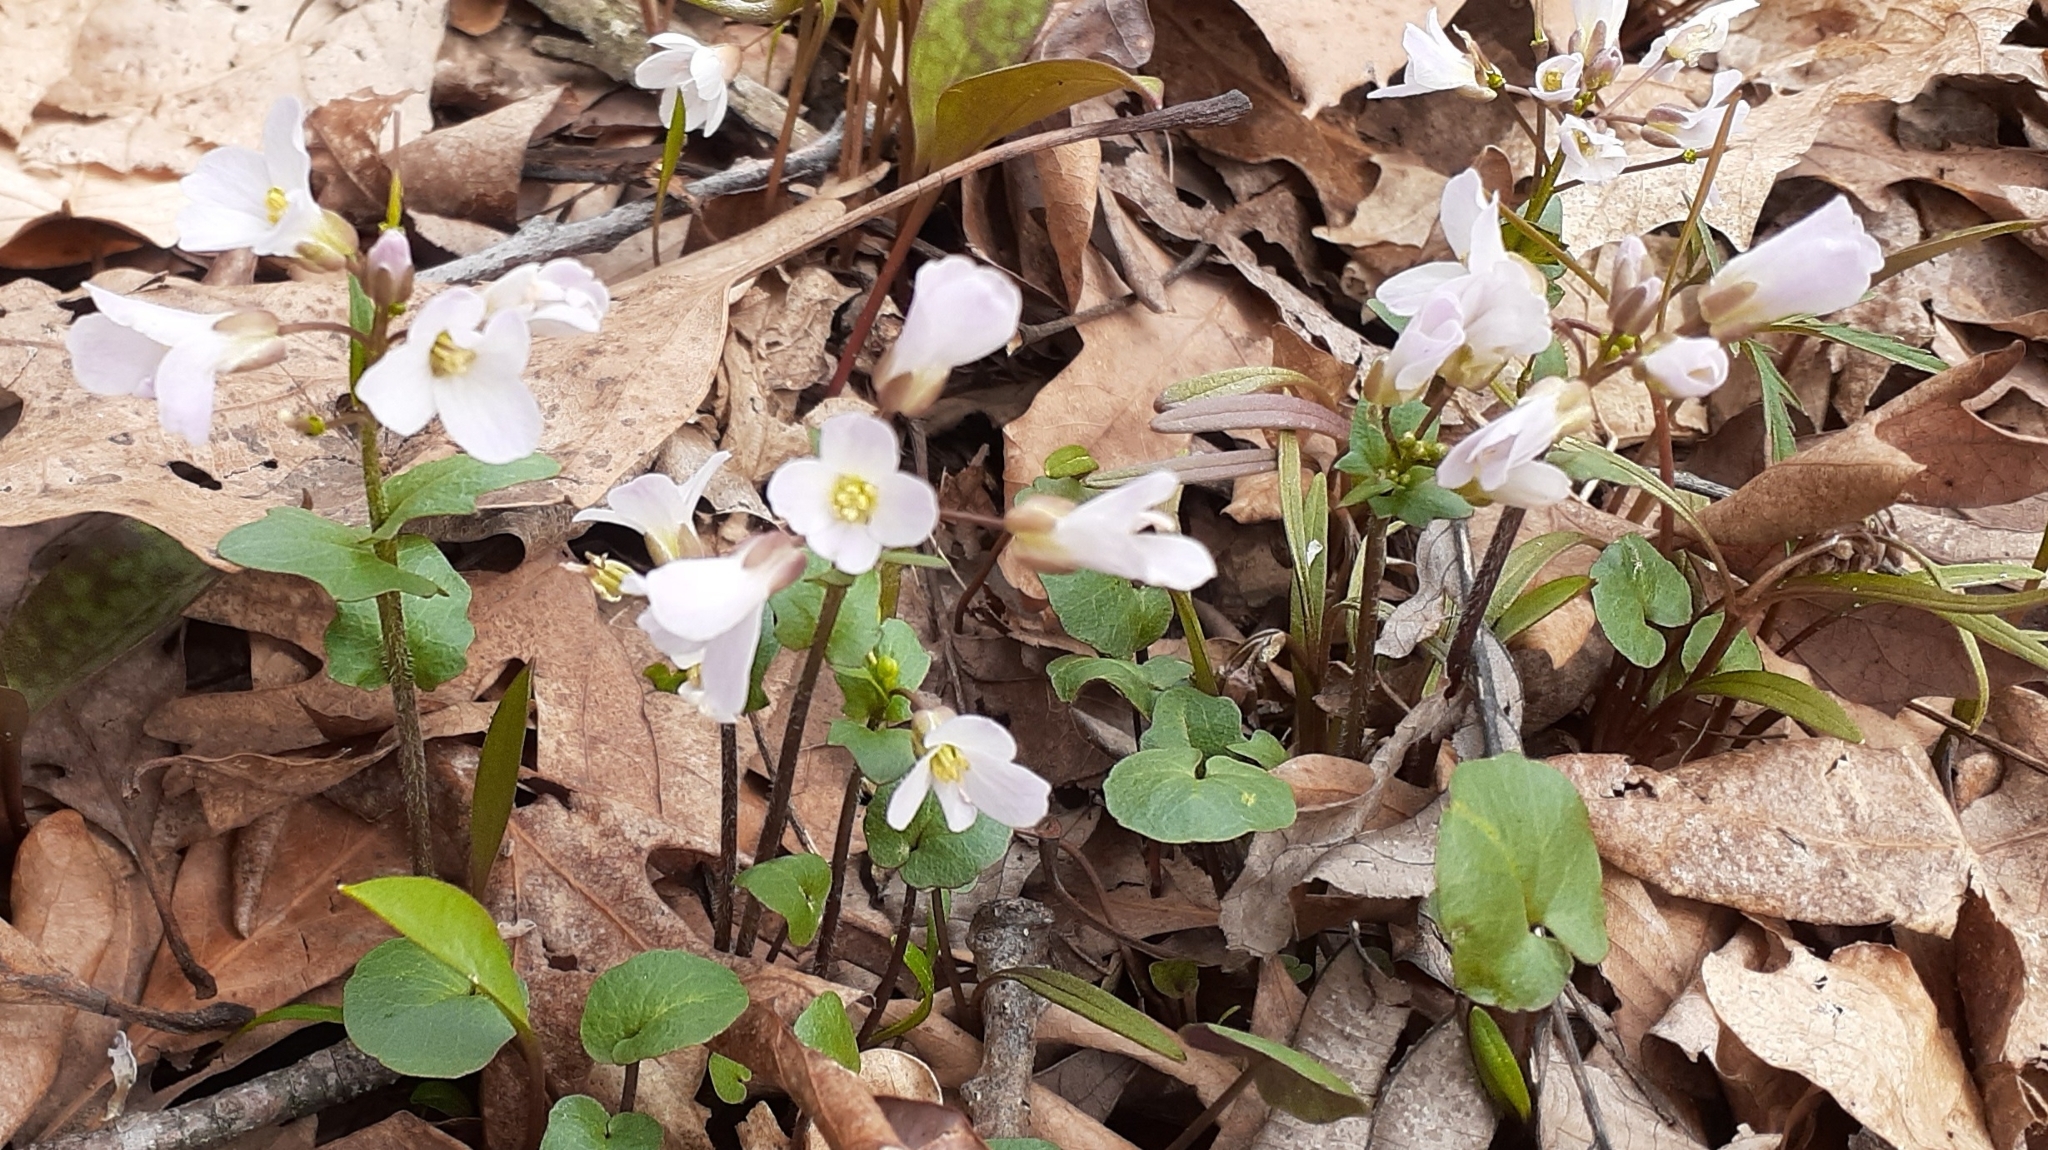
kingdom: Plantae
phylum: Tracheophyta
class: Magnoliopsida
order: Brassicales
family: Brassicaceae
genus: Cardamine
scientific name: Cardamine douglassii
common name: Purple cress
